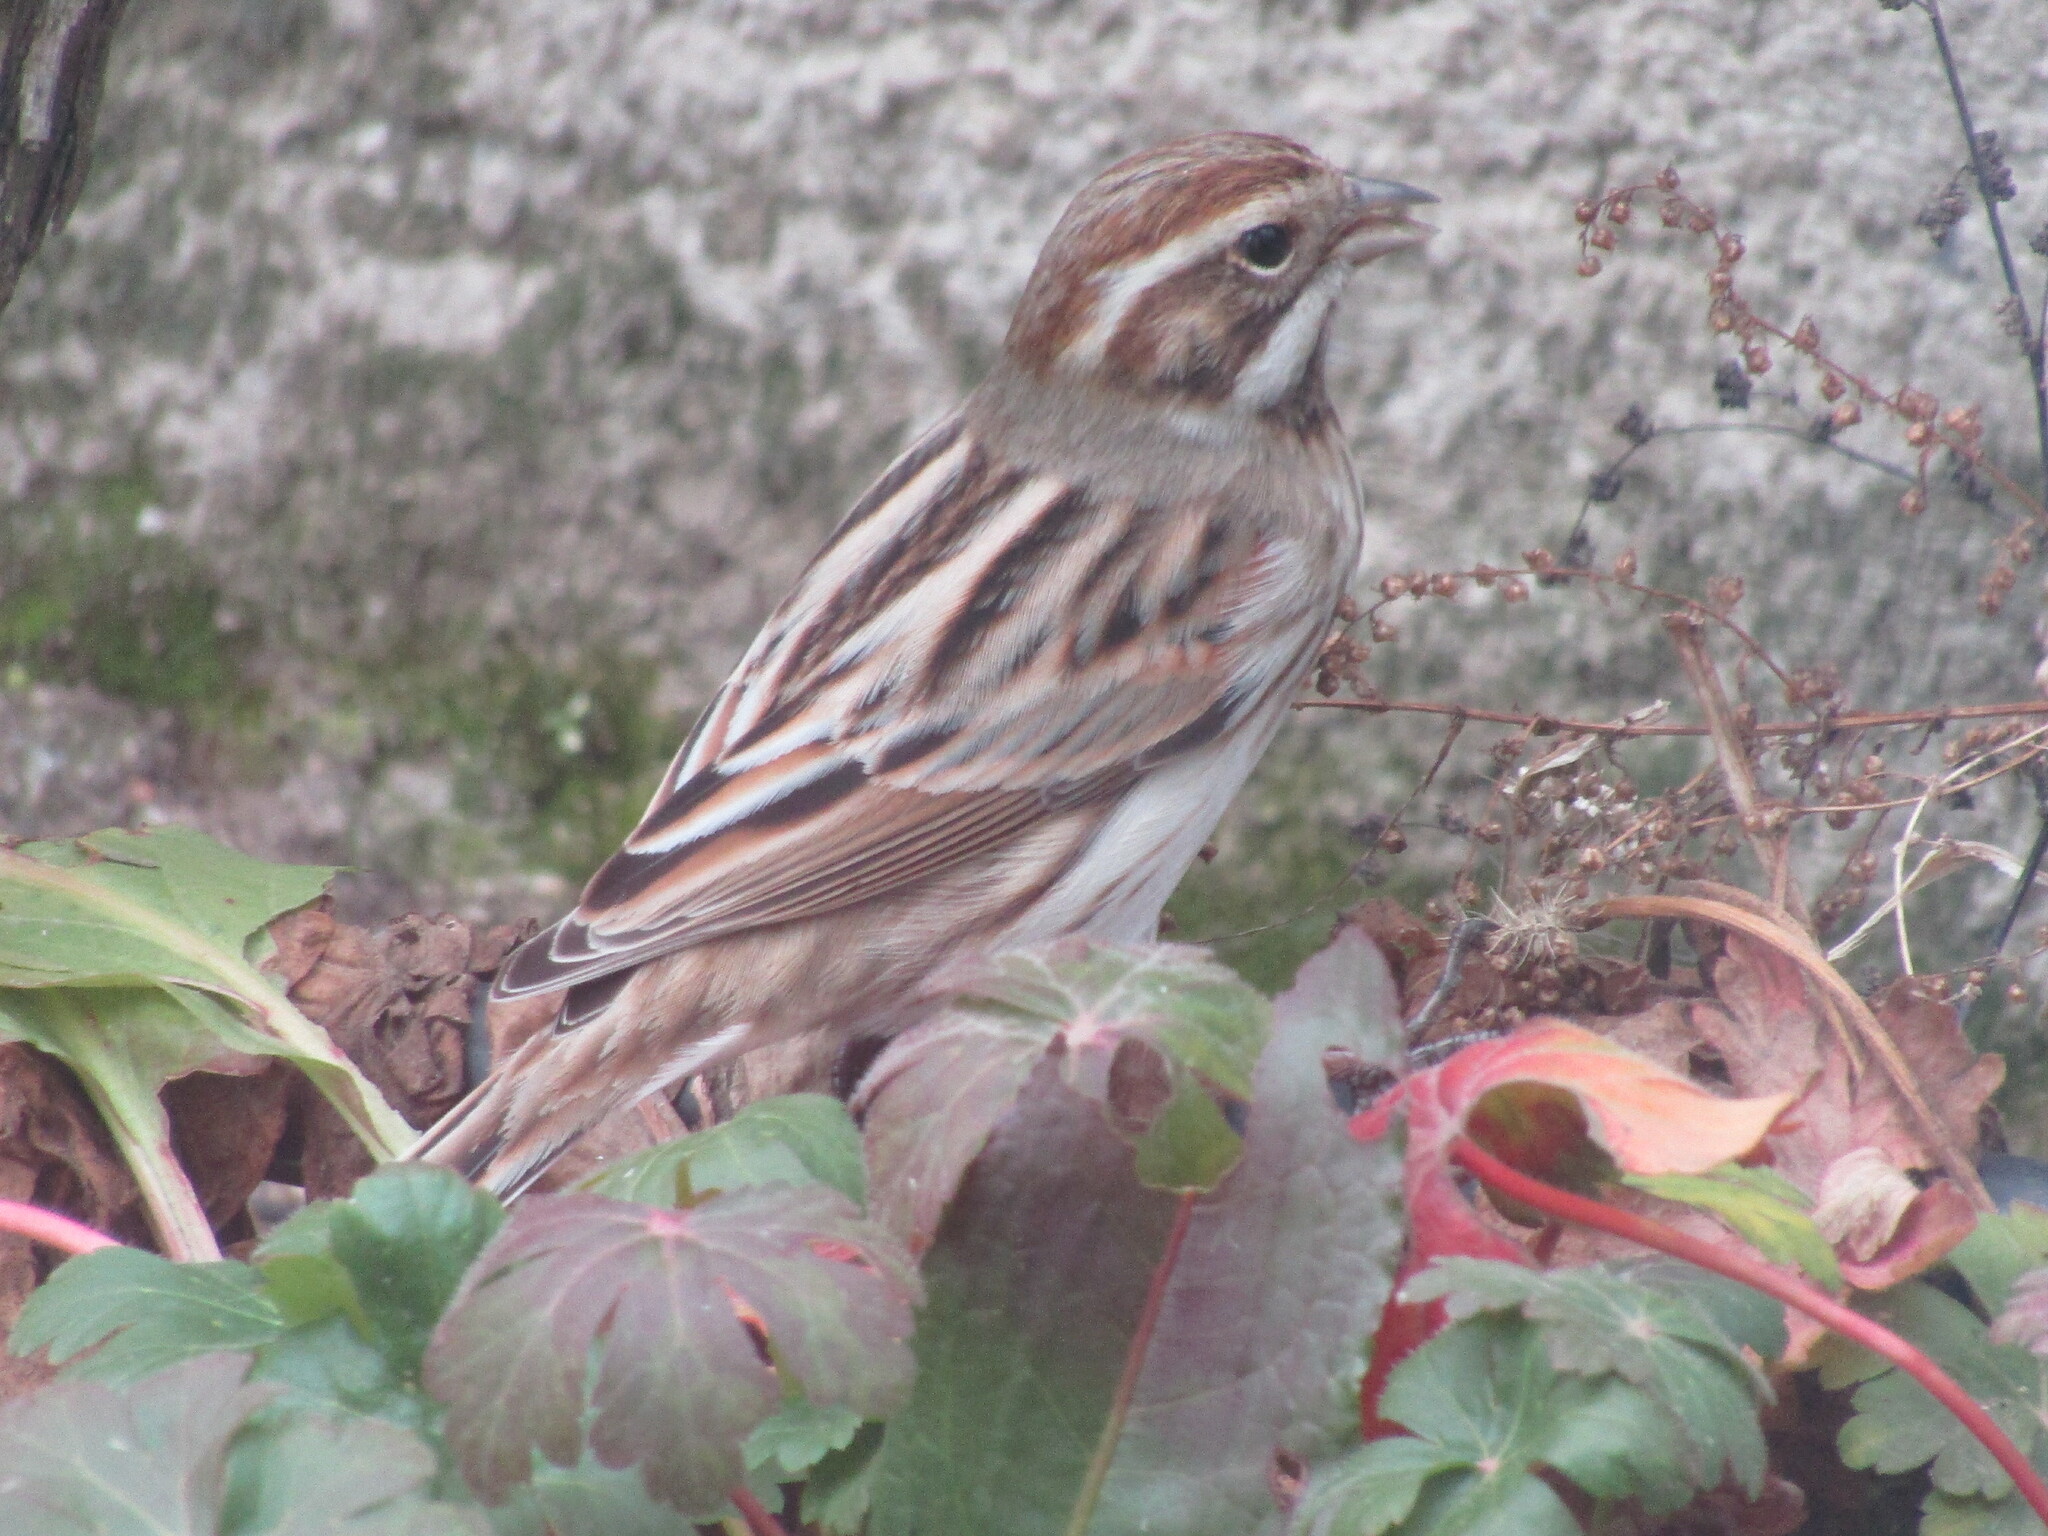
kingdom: Animalia
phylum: Chordata
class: Aves
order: Passeriformes
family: Emberizidae
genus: Emberiza
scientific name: Emberiza schoeniclus
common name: Reed bunting
